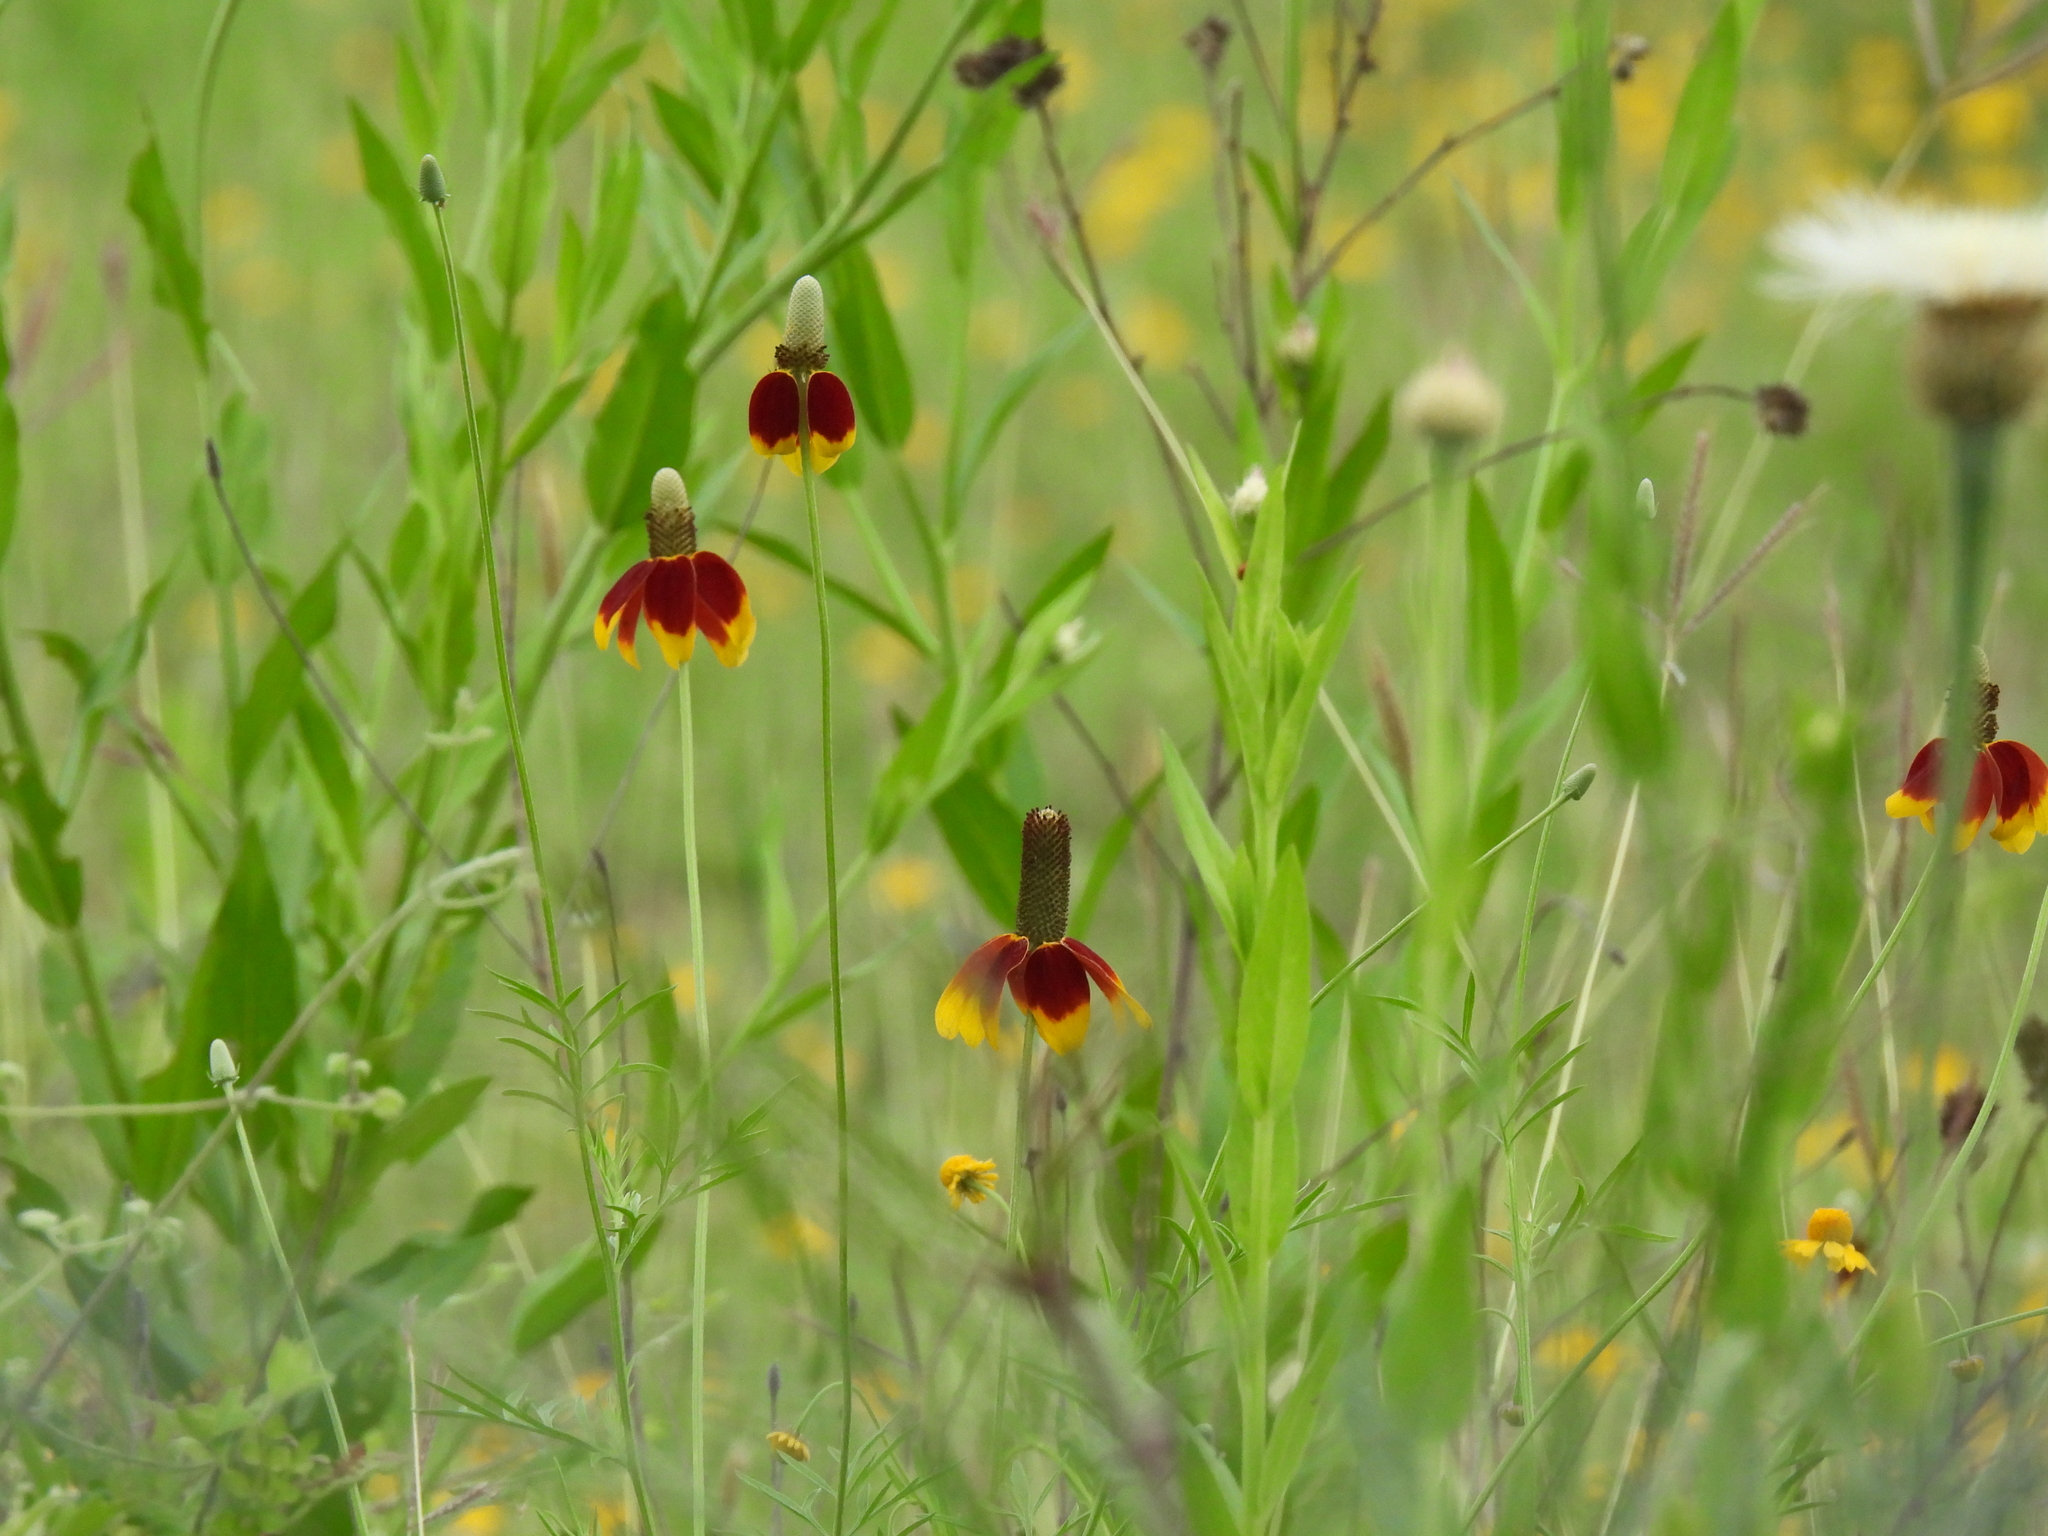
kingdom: Plantae
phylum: Tracheophyta
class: Magnoliopsida
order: Asterales
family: Asteraceae
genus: Ratibida
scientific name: Ratibida columnifera
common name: Prairie coneflower
